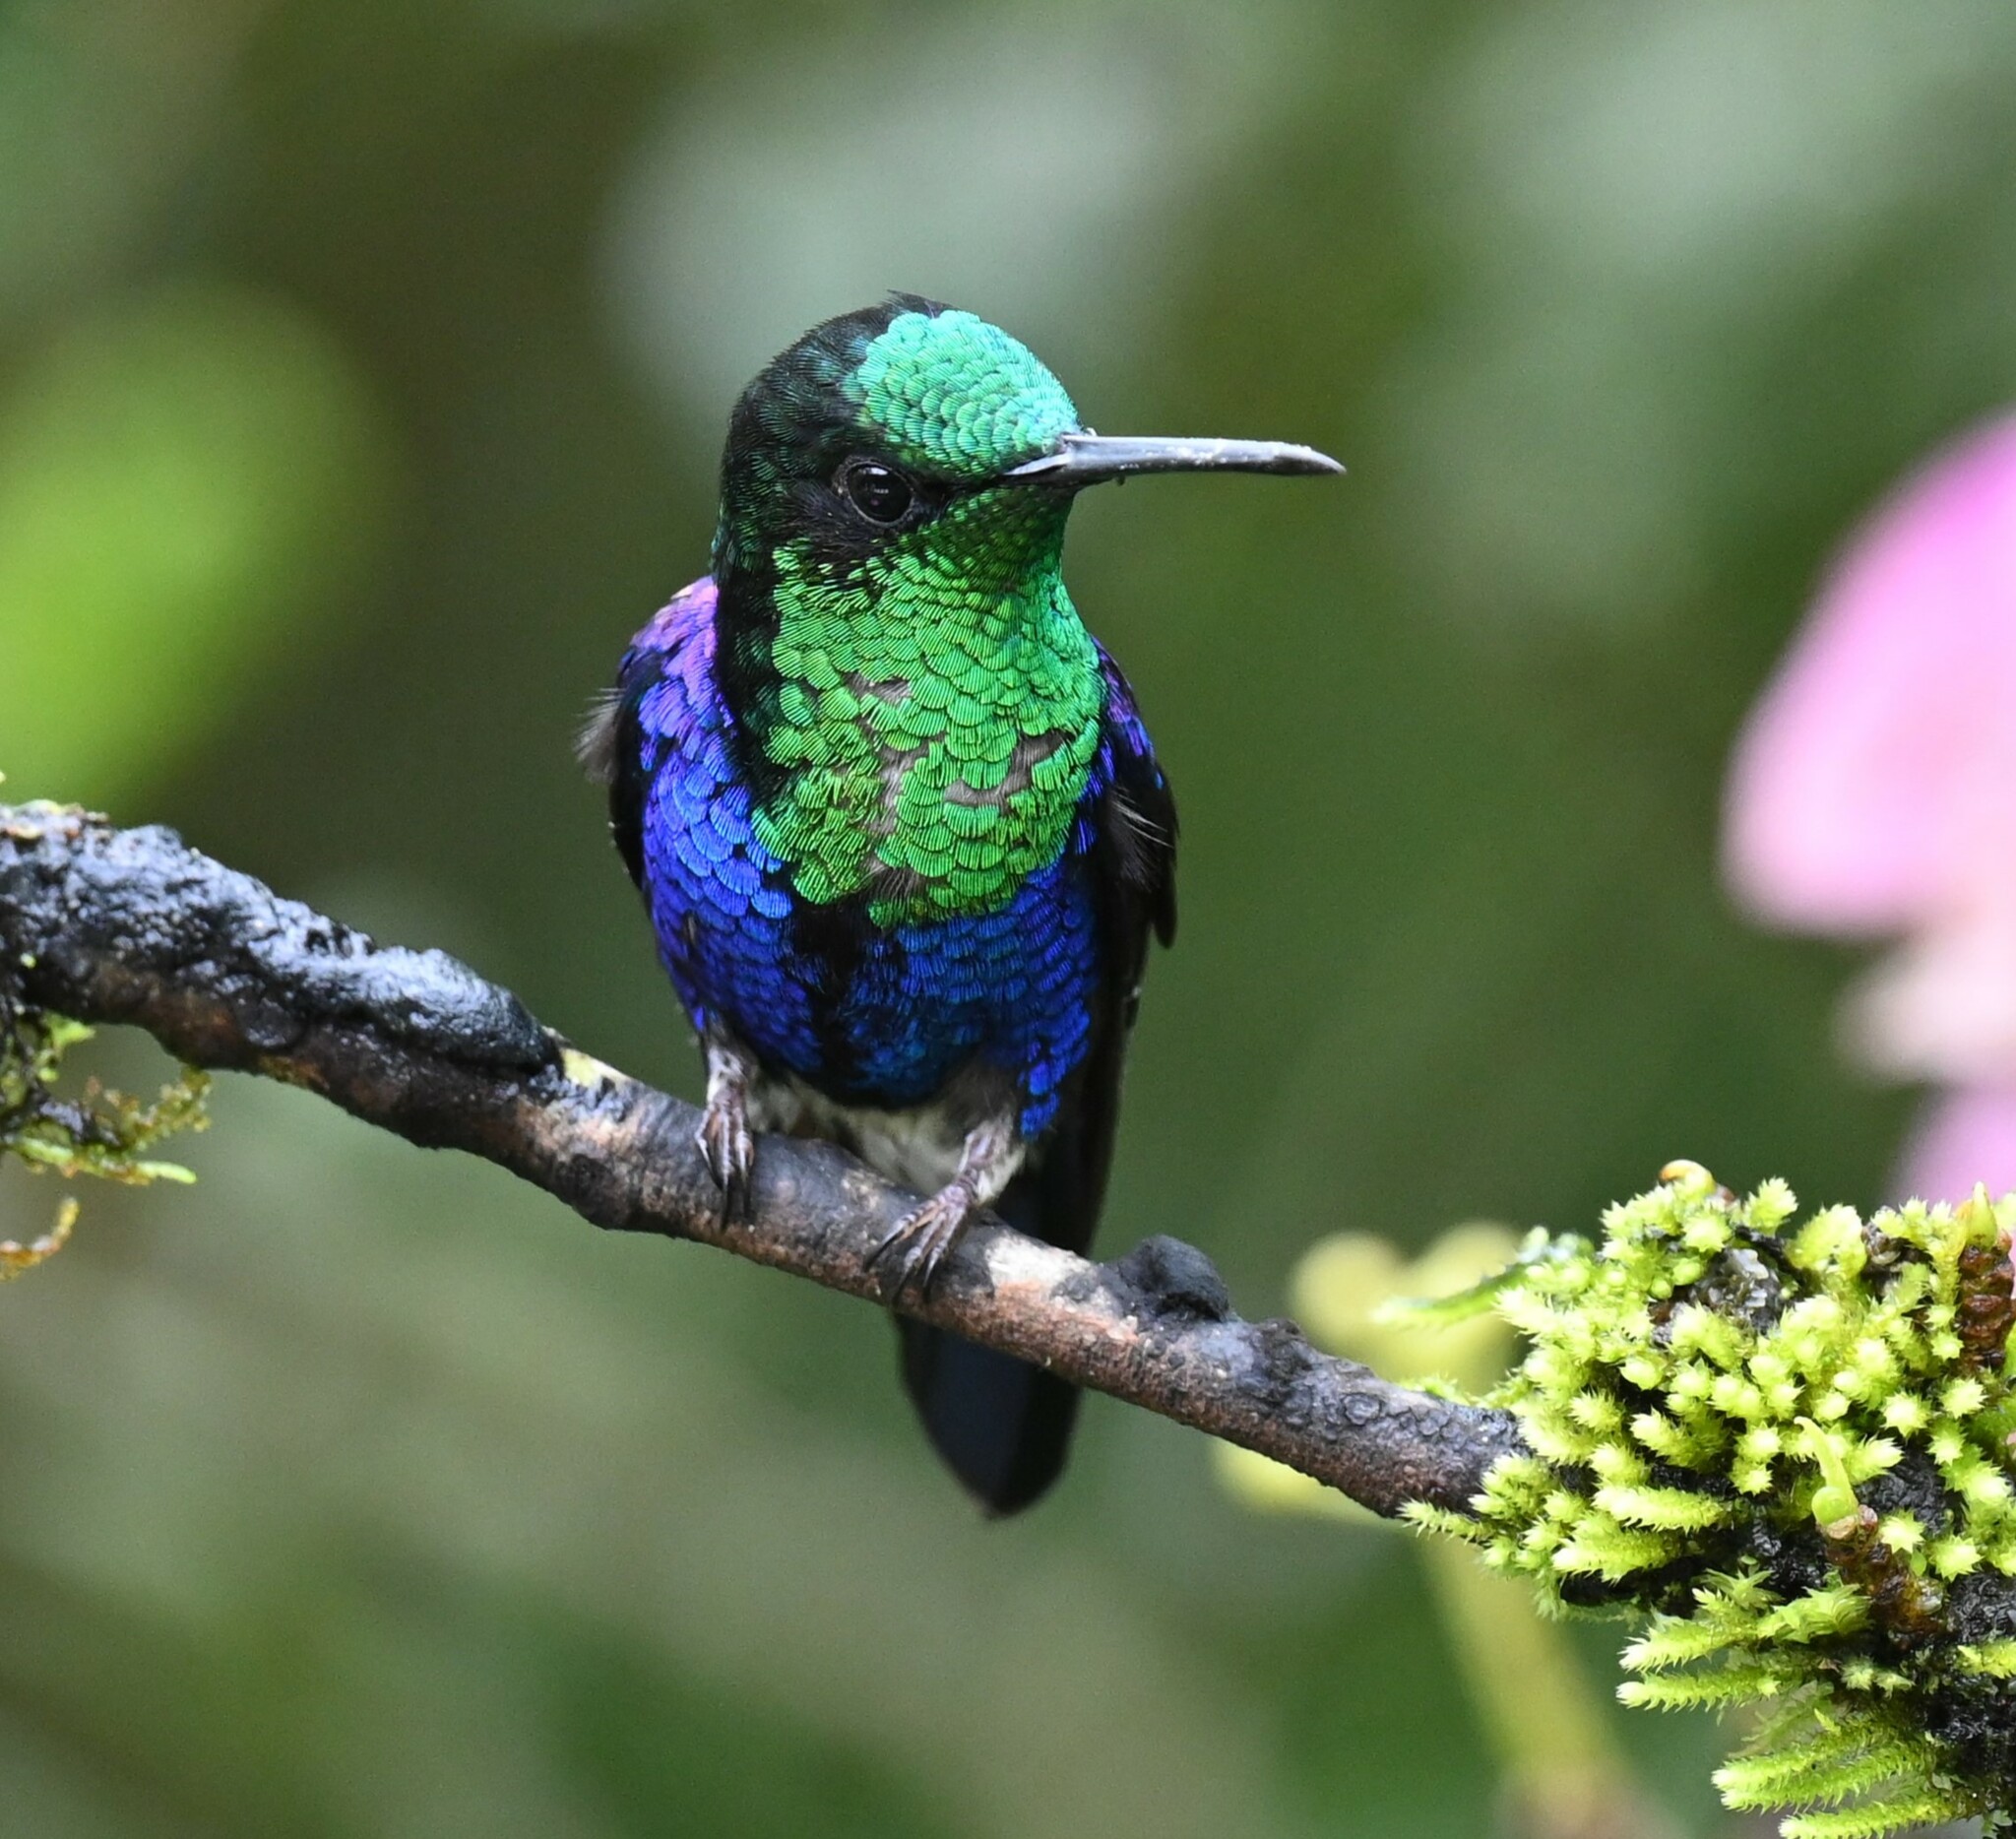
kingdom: Animalia
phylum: Chordata
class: Aves
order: Apodiformes
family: Trochilidae
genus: Thalurania
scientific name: Thalurania colombica
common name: Crowned woodnymph
